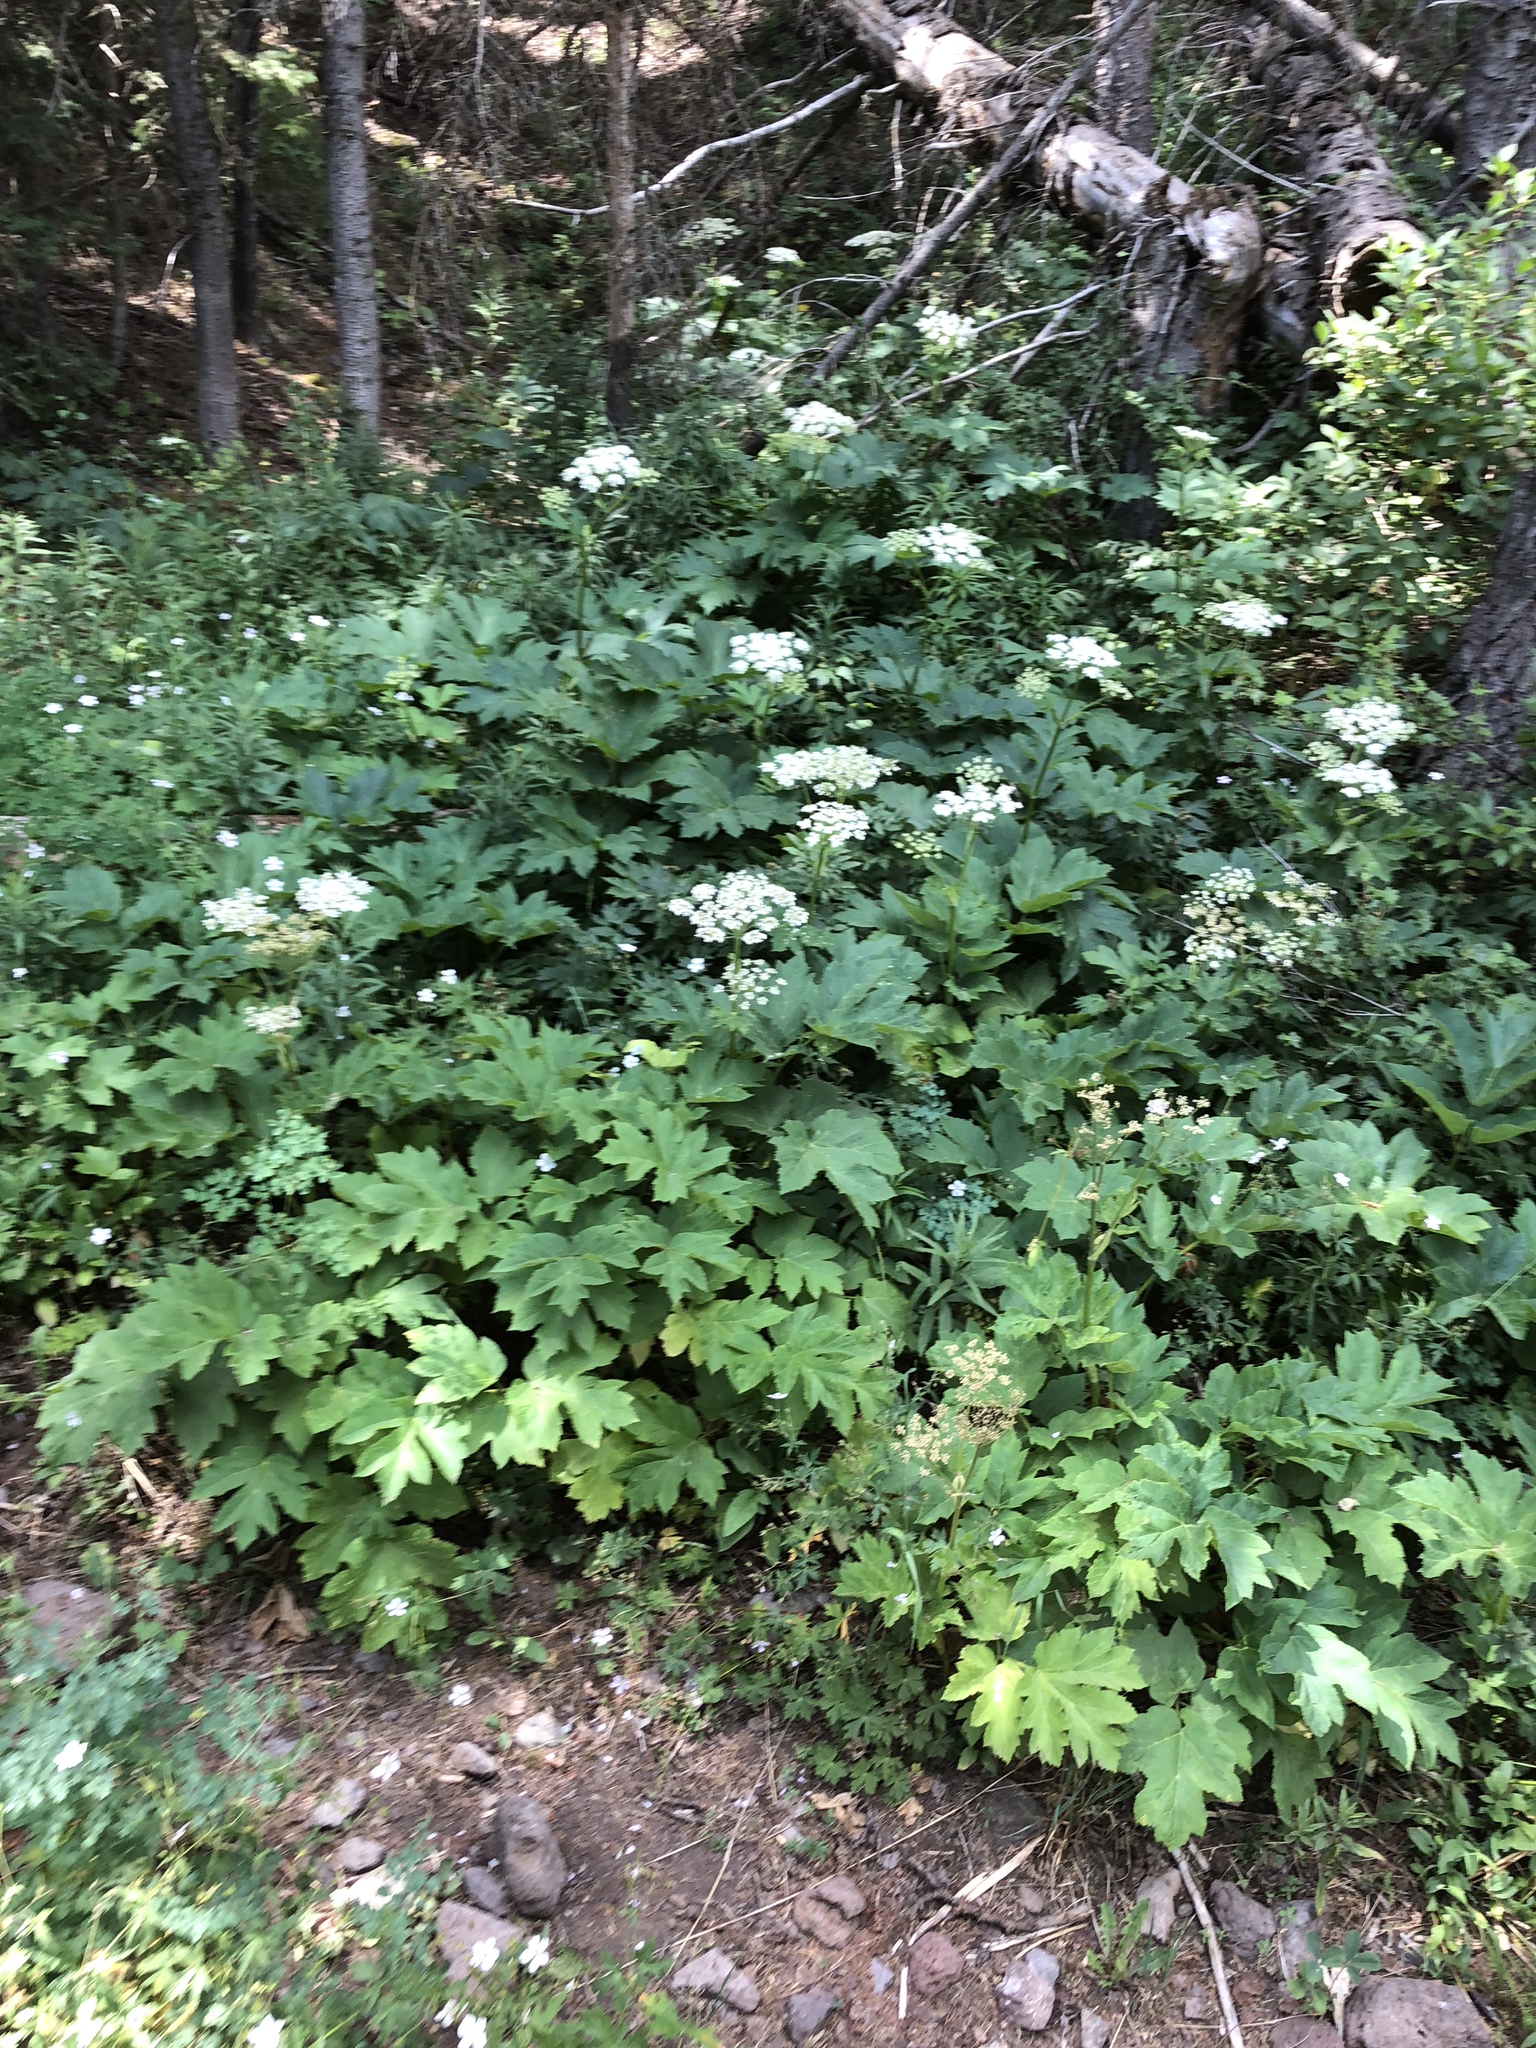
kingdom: Plantae
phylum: Tracheophyta
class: Magnoliopsida
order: Apiales
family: Apiaceae
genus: Heracleum
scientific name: Heracleum maximum
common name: American cow parsnip
